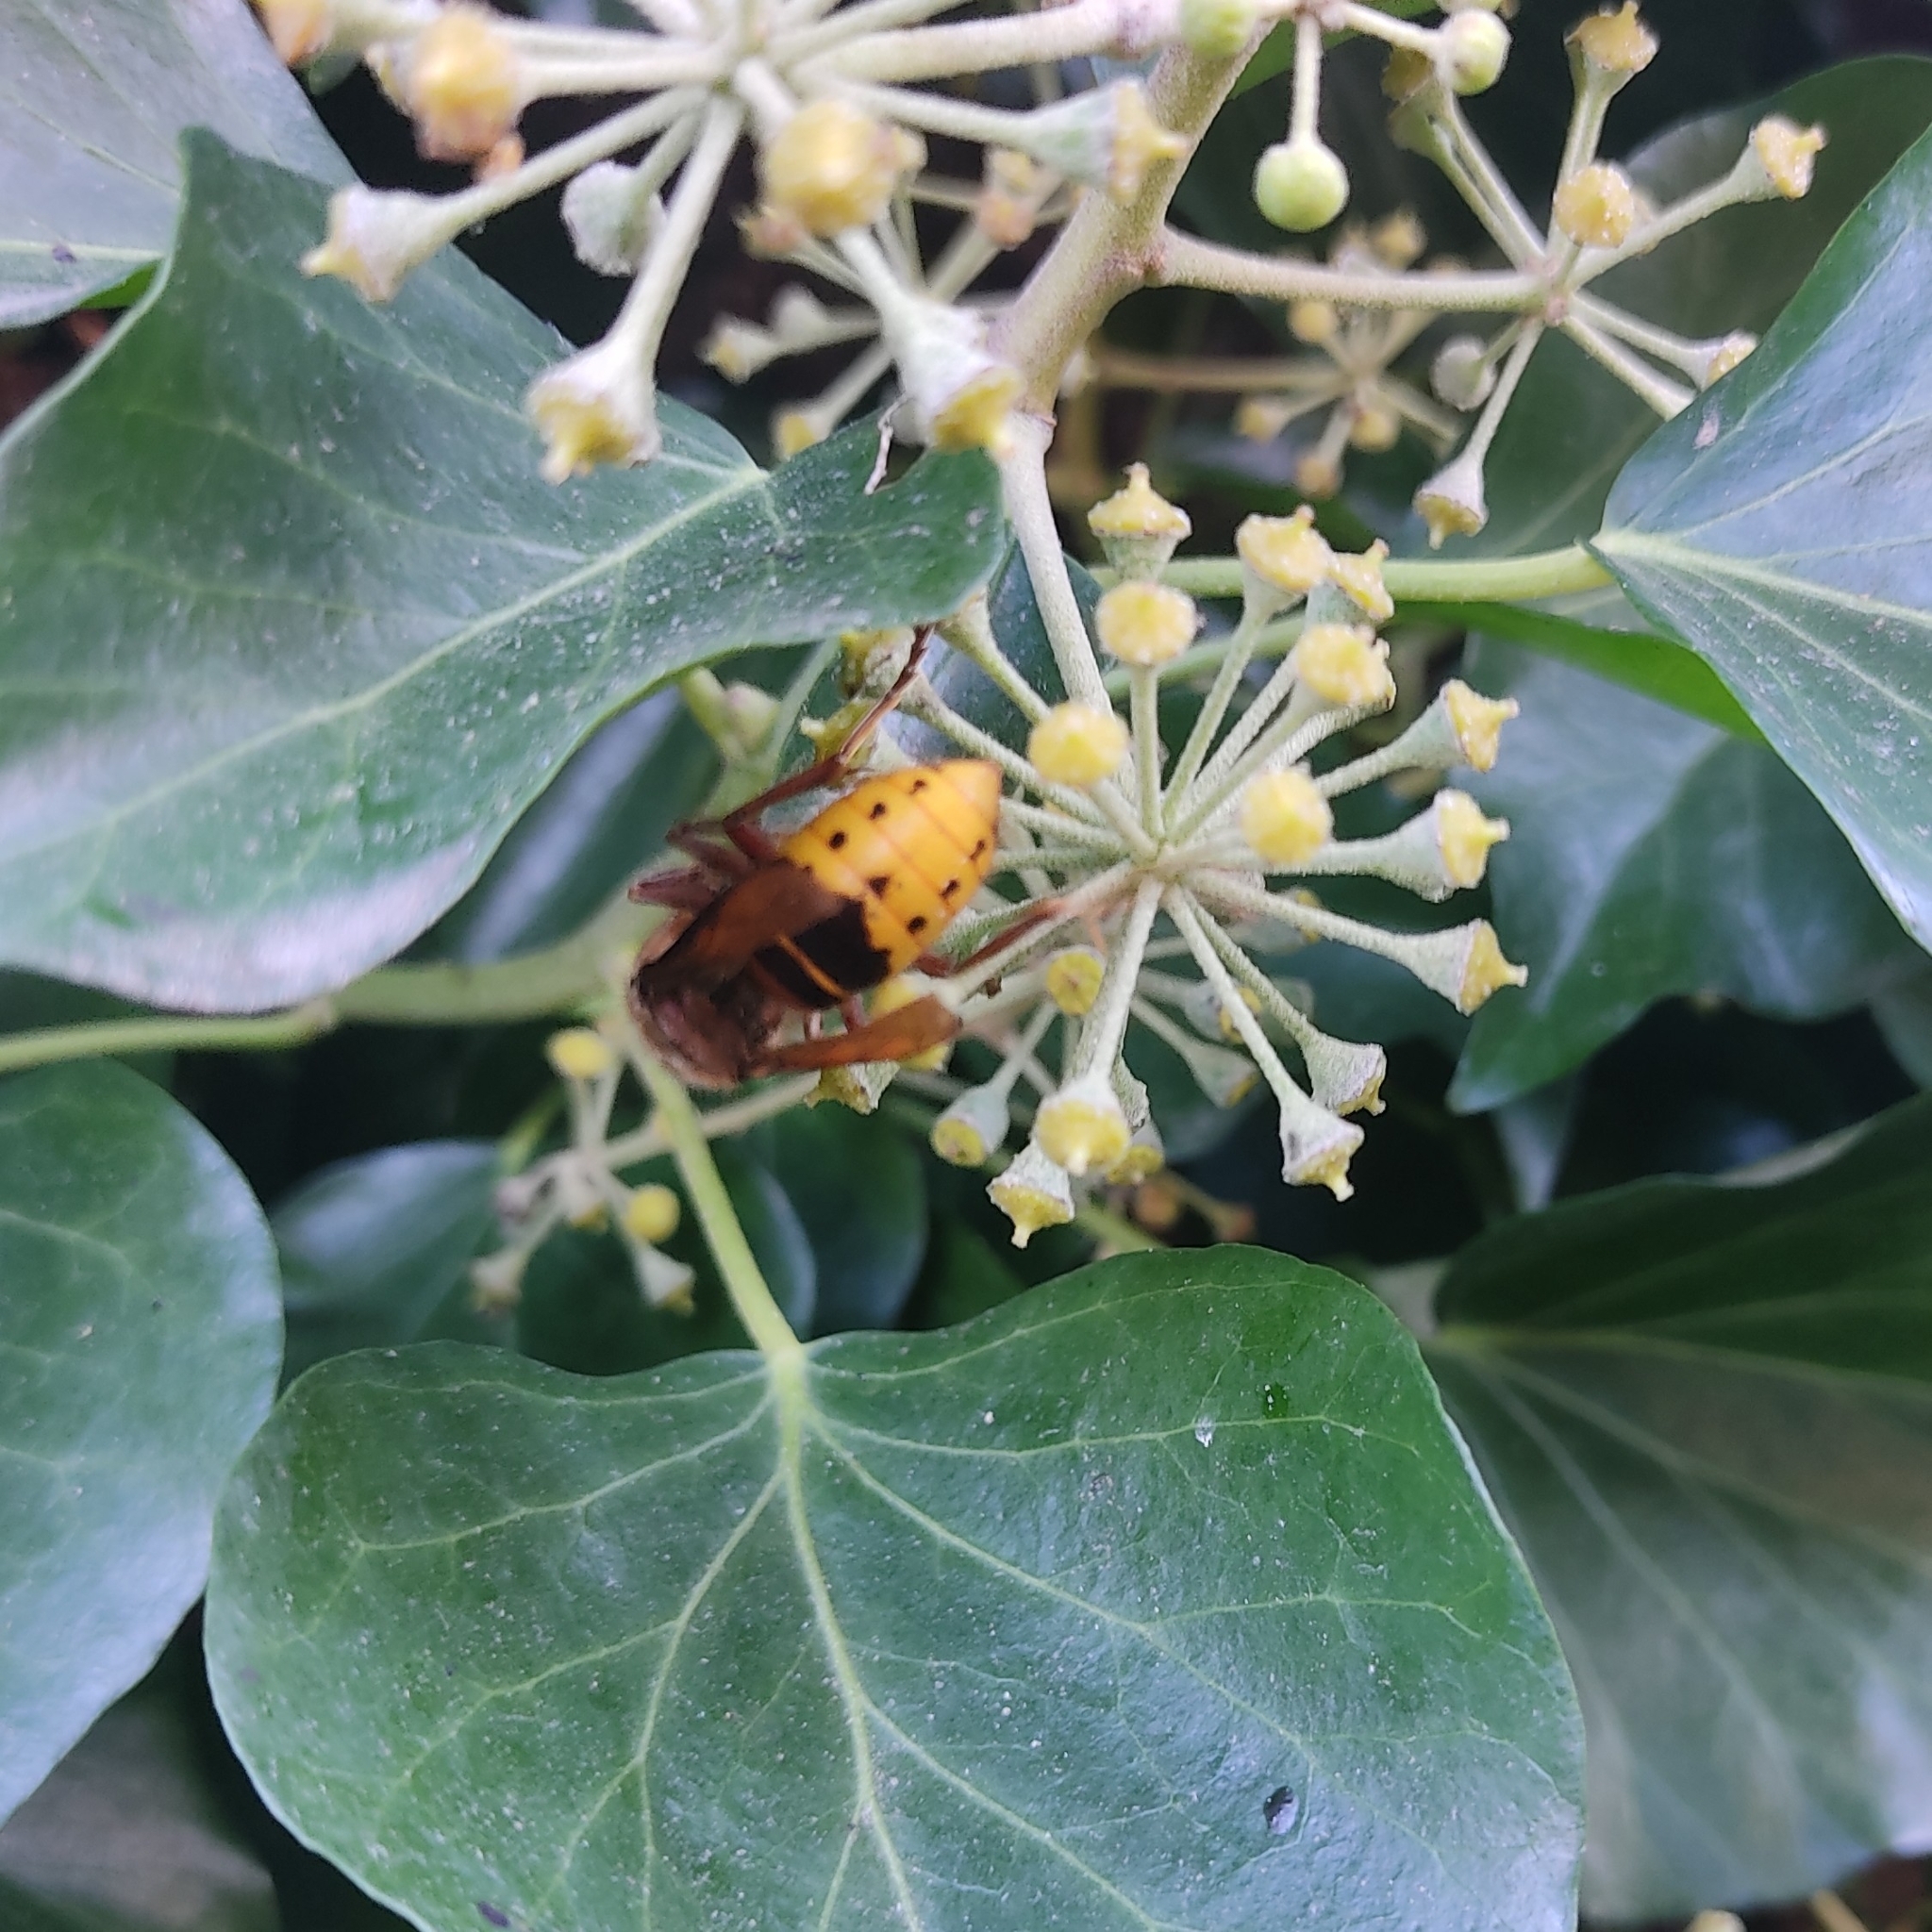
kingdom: Animalia
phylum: Arthropoda
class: Insecta
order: Hymenoptera
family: Vespidae
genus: Vespa
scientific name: Vespa crabro
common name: Hornet
